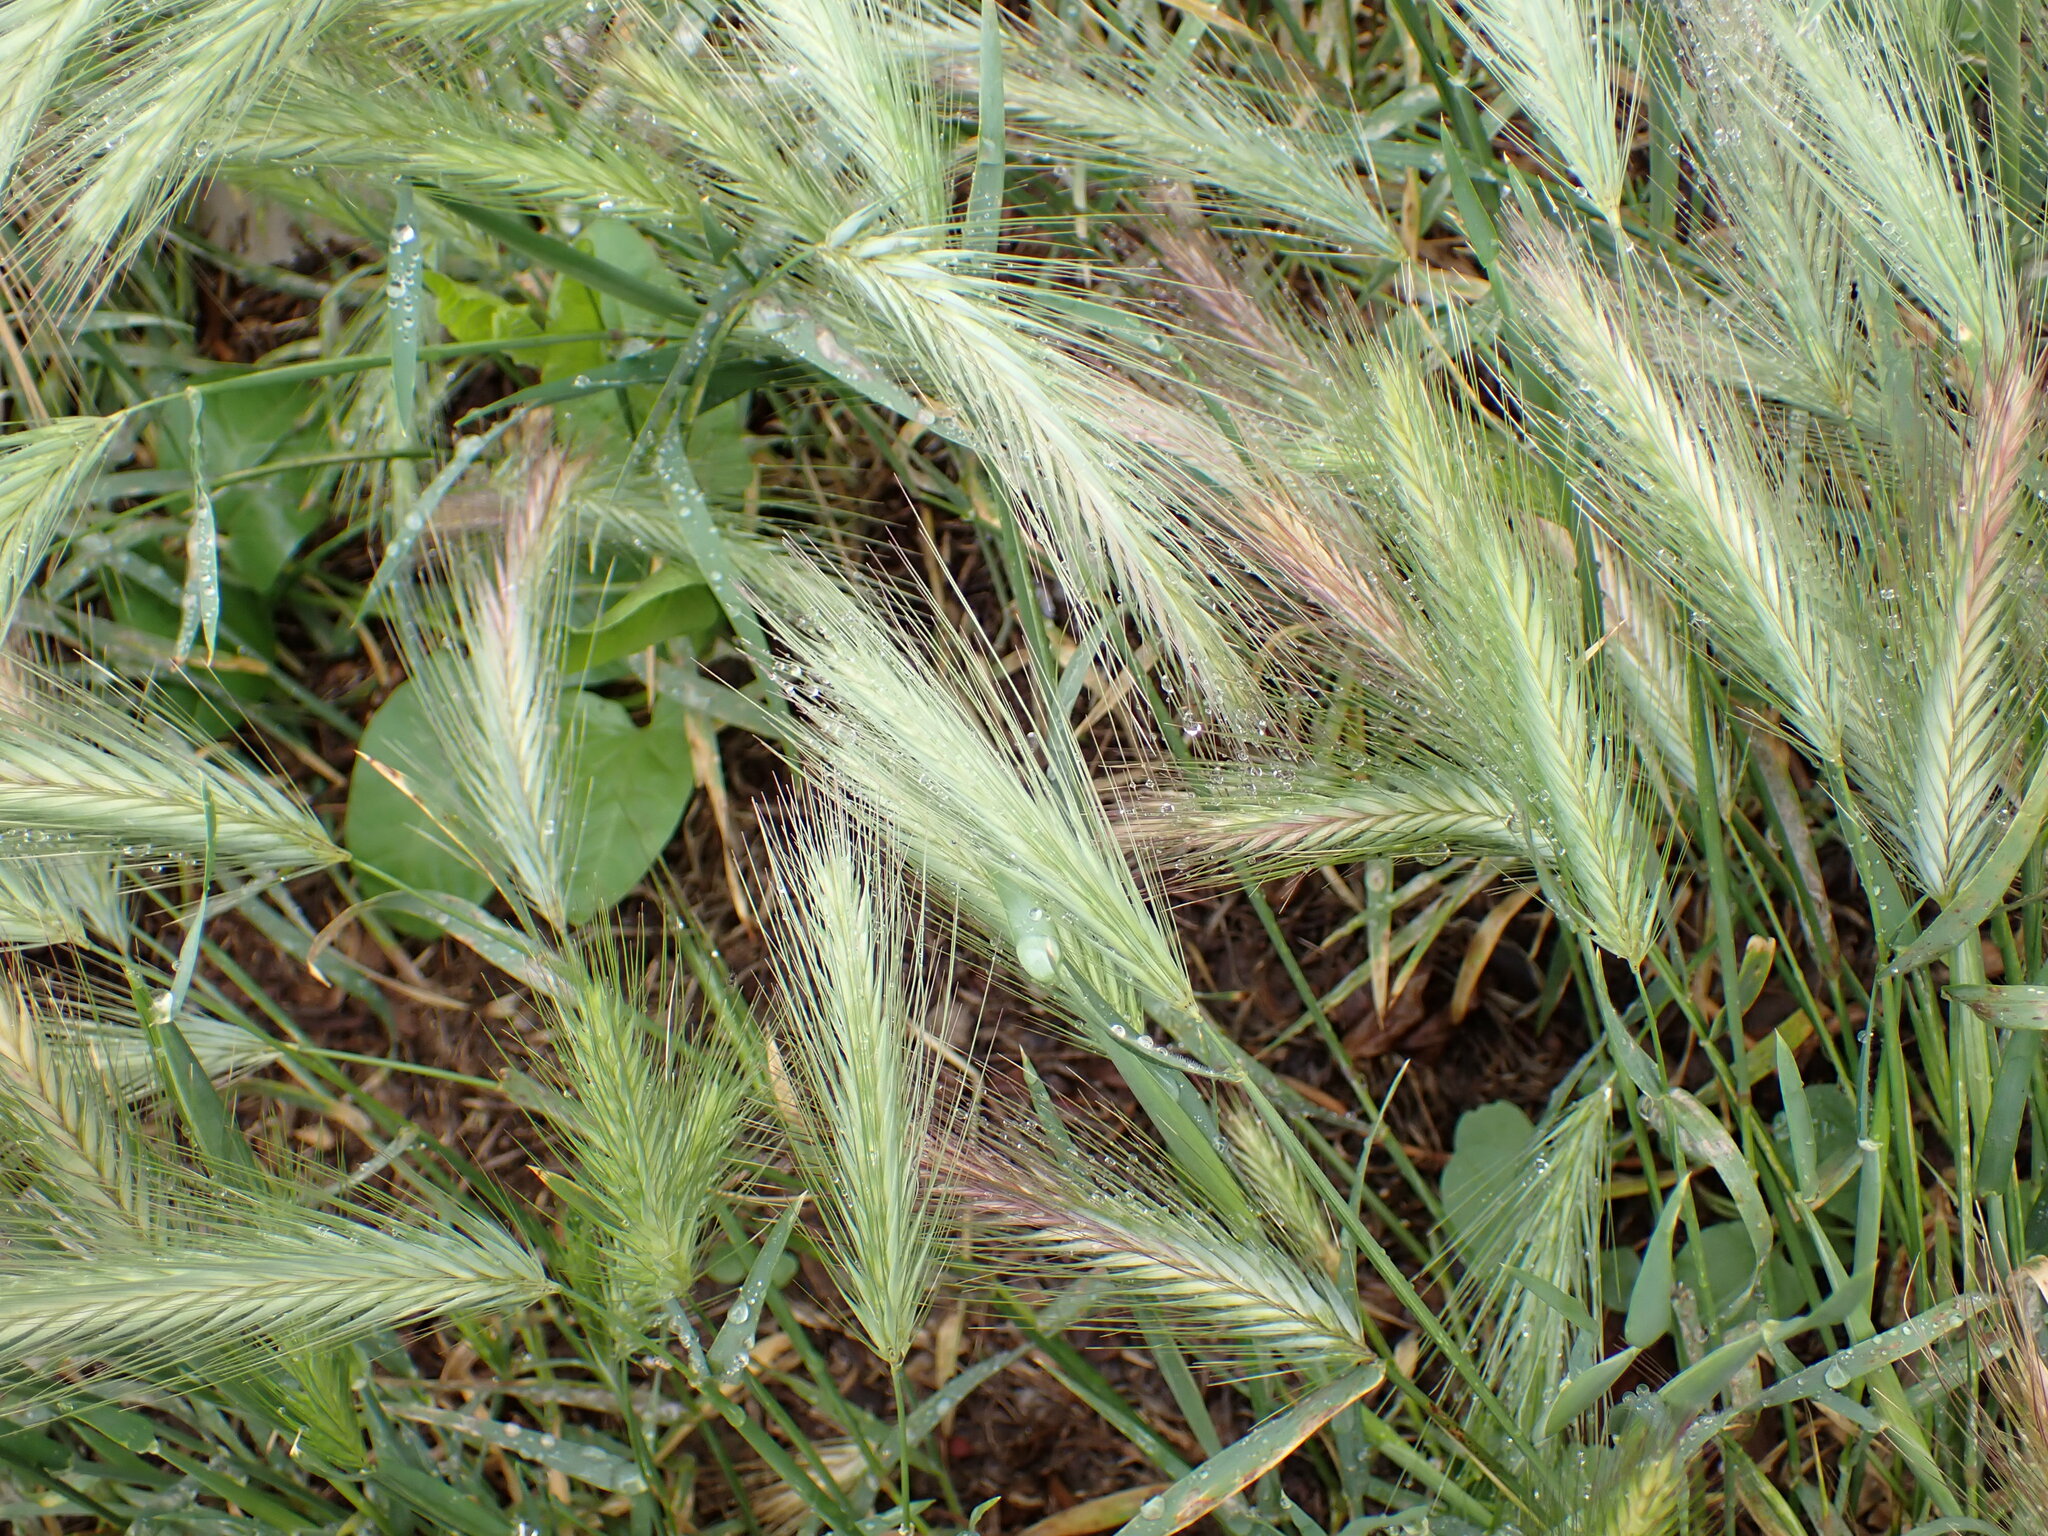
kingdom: Plantae
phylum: Tracheophyta
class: Liliopsida
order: Poales
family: Poaceae
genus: Hordeum
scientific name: Hordeum murinum
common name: Wall barley
